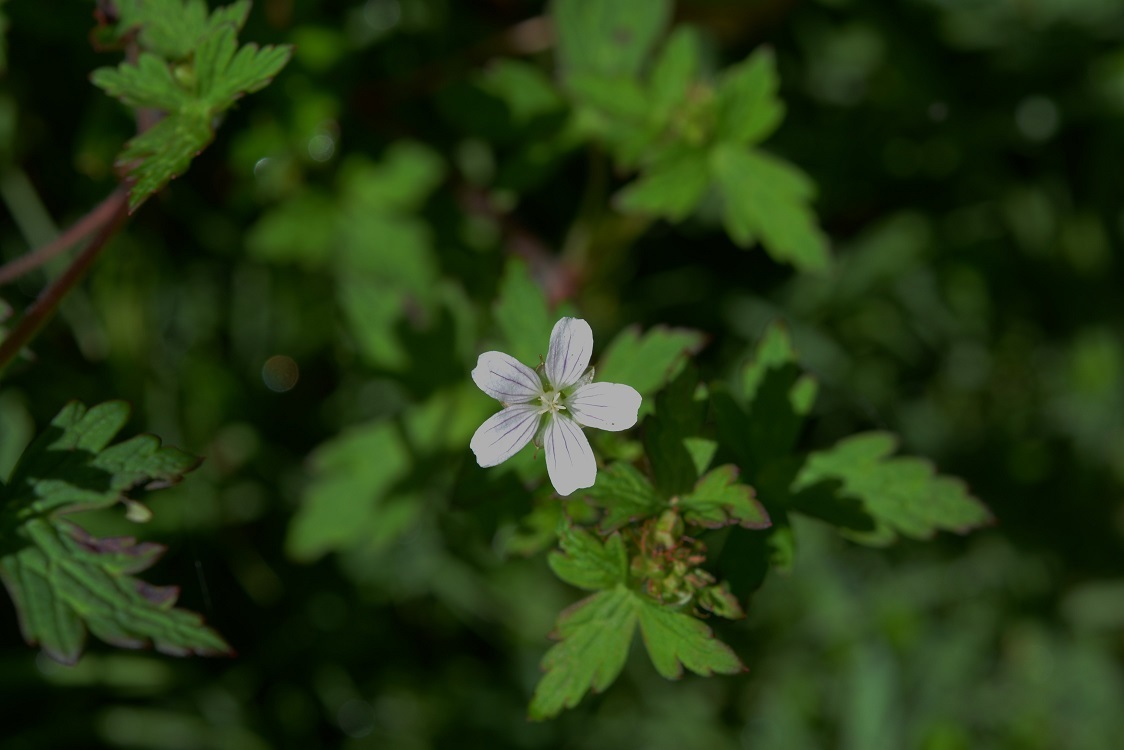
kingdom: Plantae
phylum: Tracheophyta
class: Magnoliopsida
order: Geraniales
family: Geraniaceae
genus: Geranium
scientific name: Geranium seemannii
